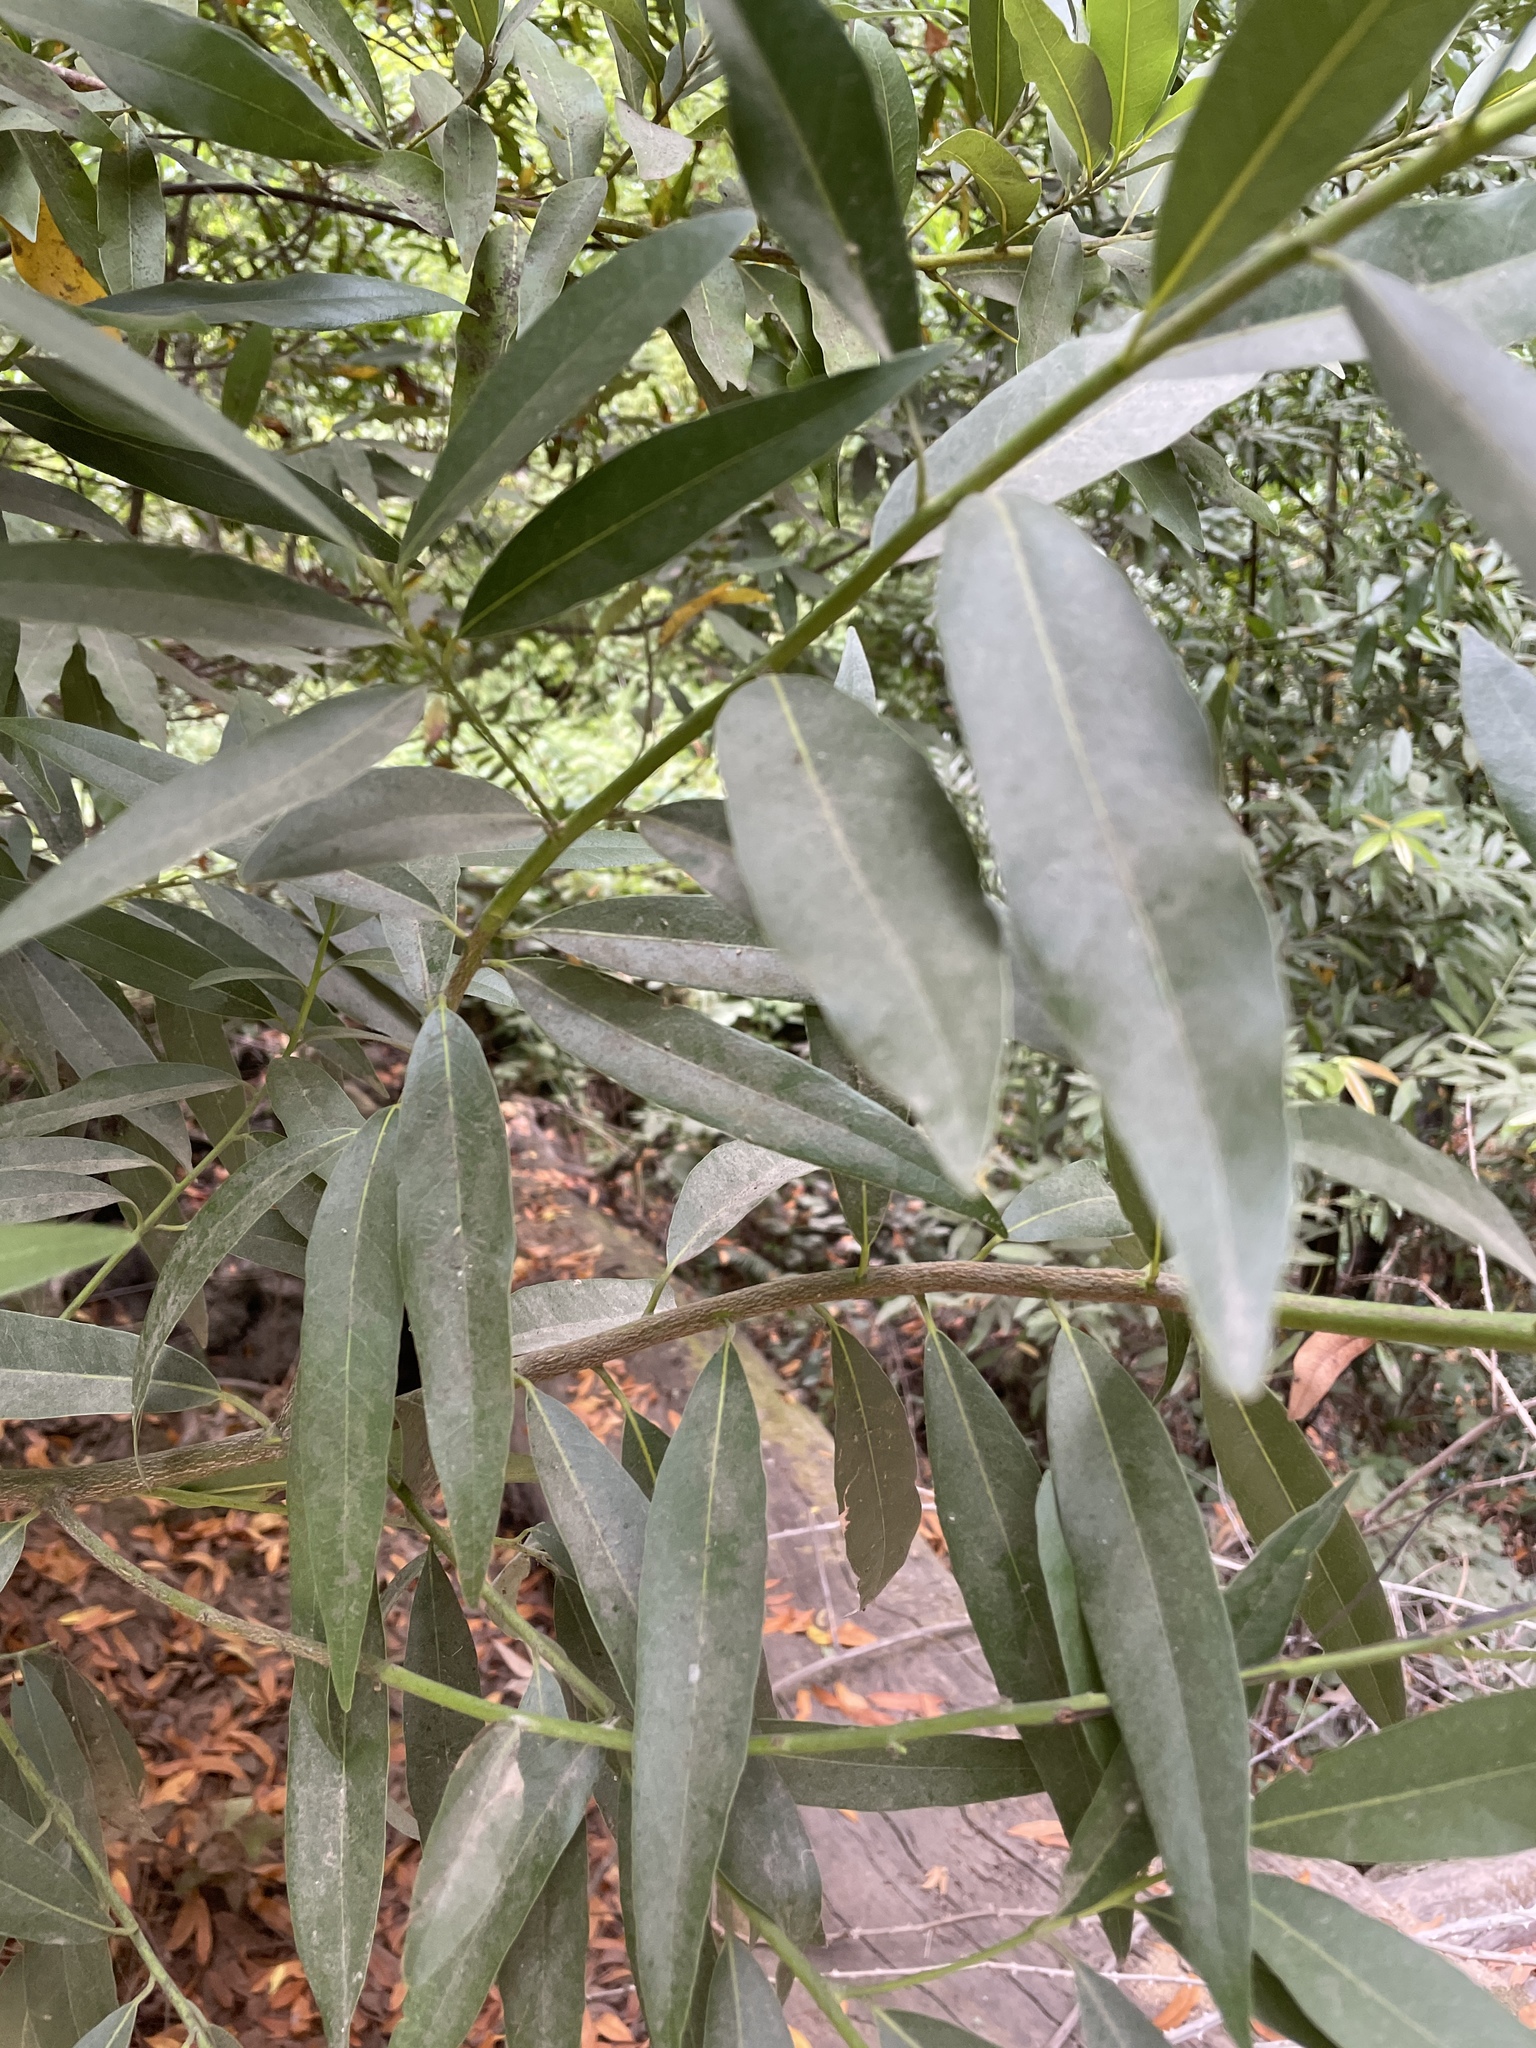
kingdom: Plantae
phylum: Tracheophyta
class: Magnoliopsida
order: Laurales
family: Lauraceae
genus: Umbellularia
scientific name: Umbellularia californica
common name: California bay
